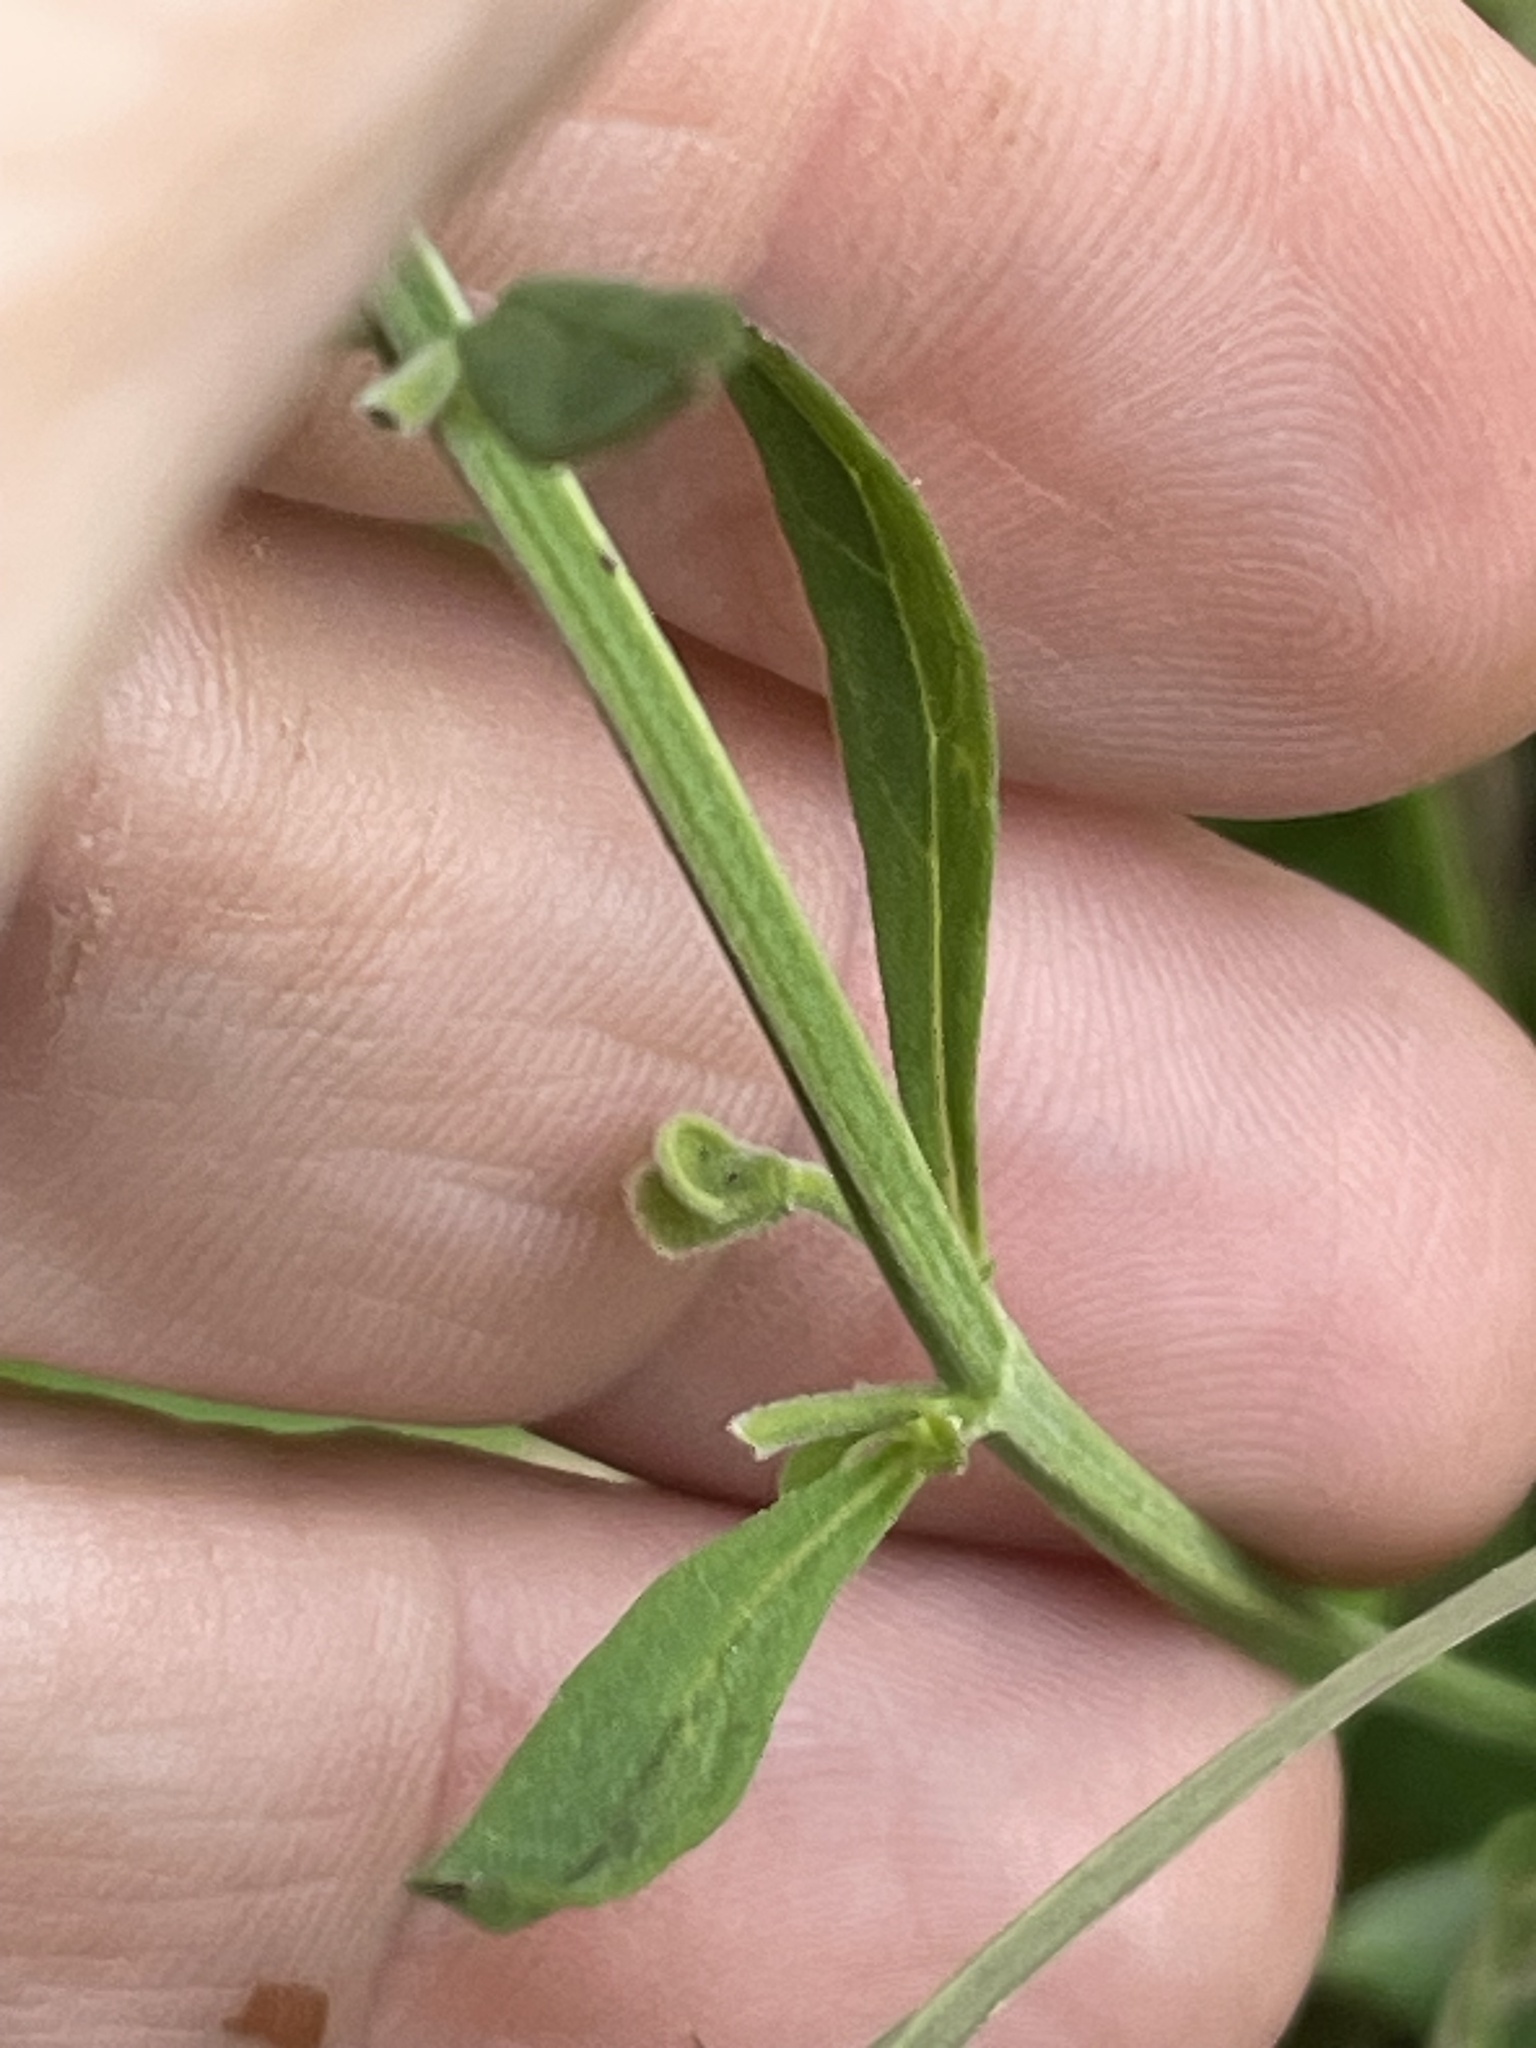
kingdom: Plantae
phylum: Tracheophyta
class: Magnoliopsida
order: Lamiales
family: Lamiaceae
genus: Scutellaria
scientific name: Scutellaria integrifolia
